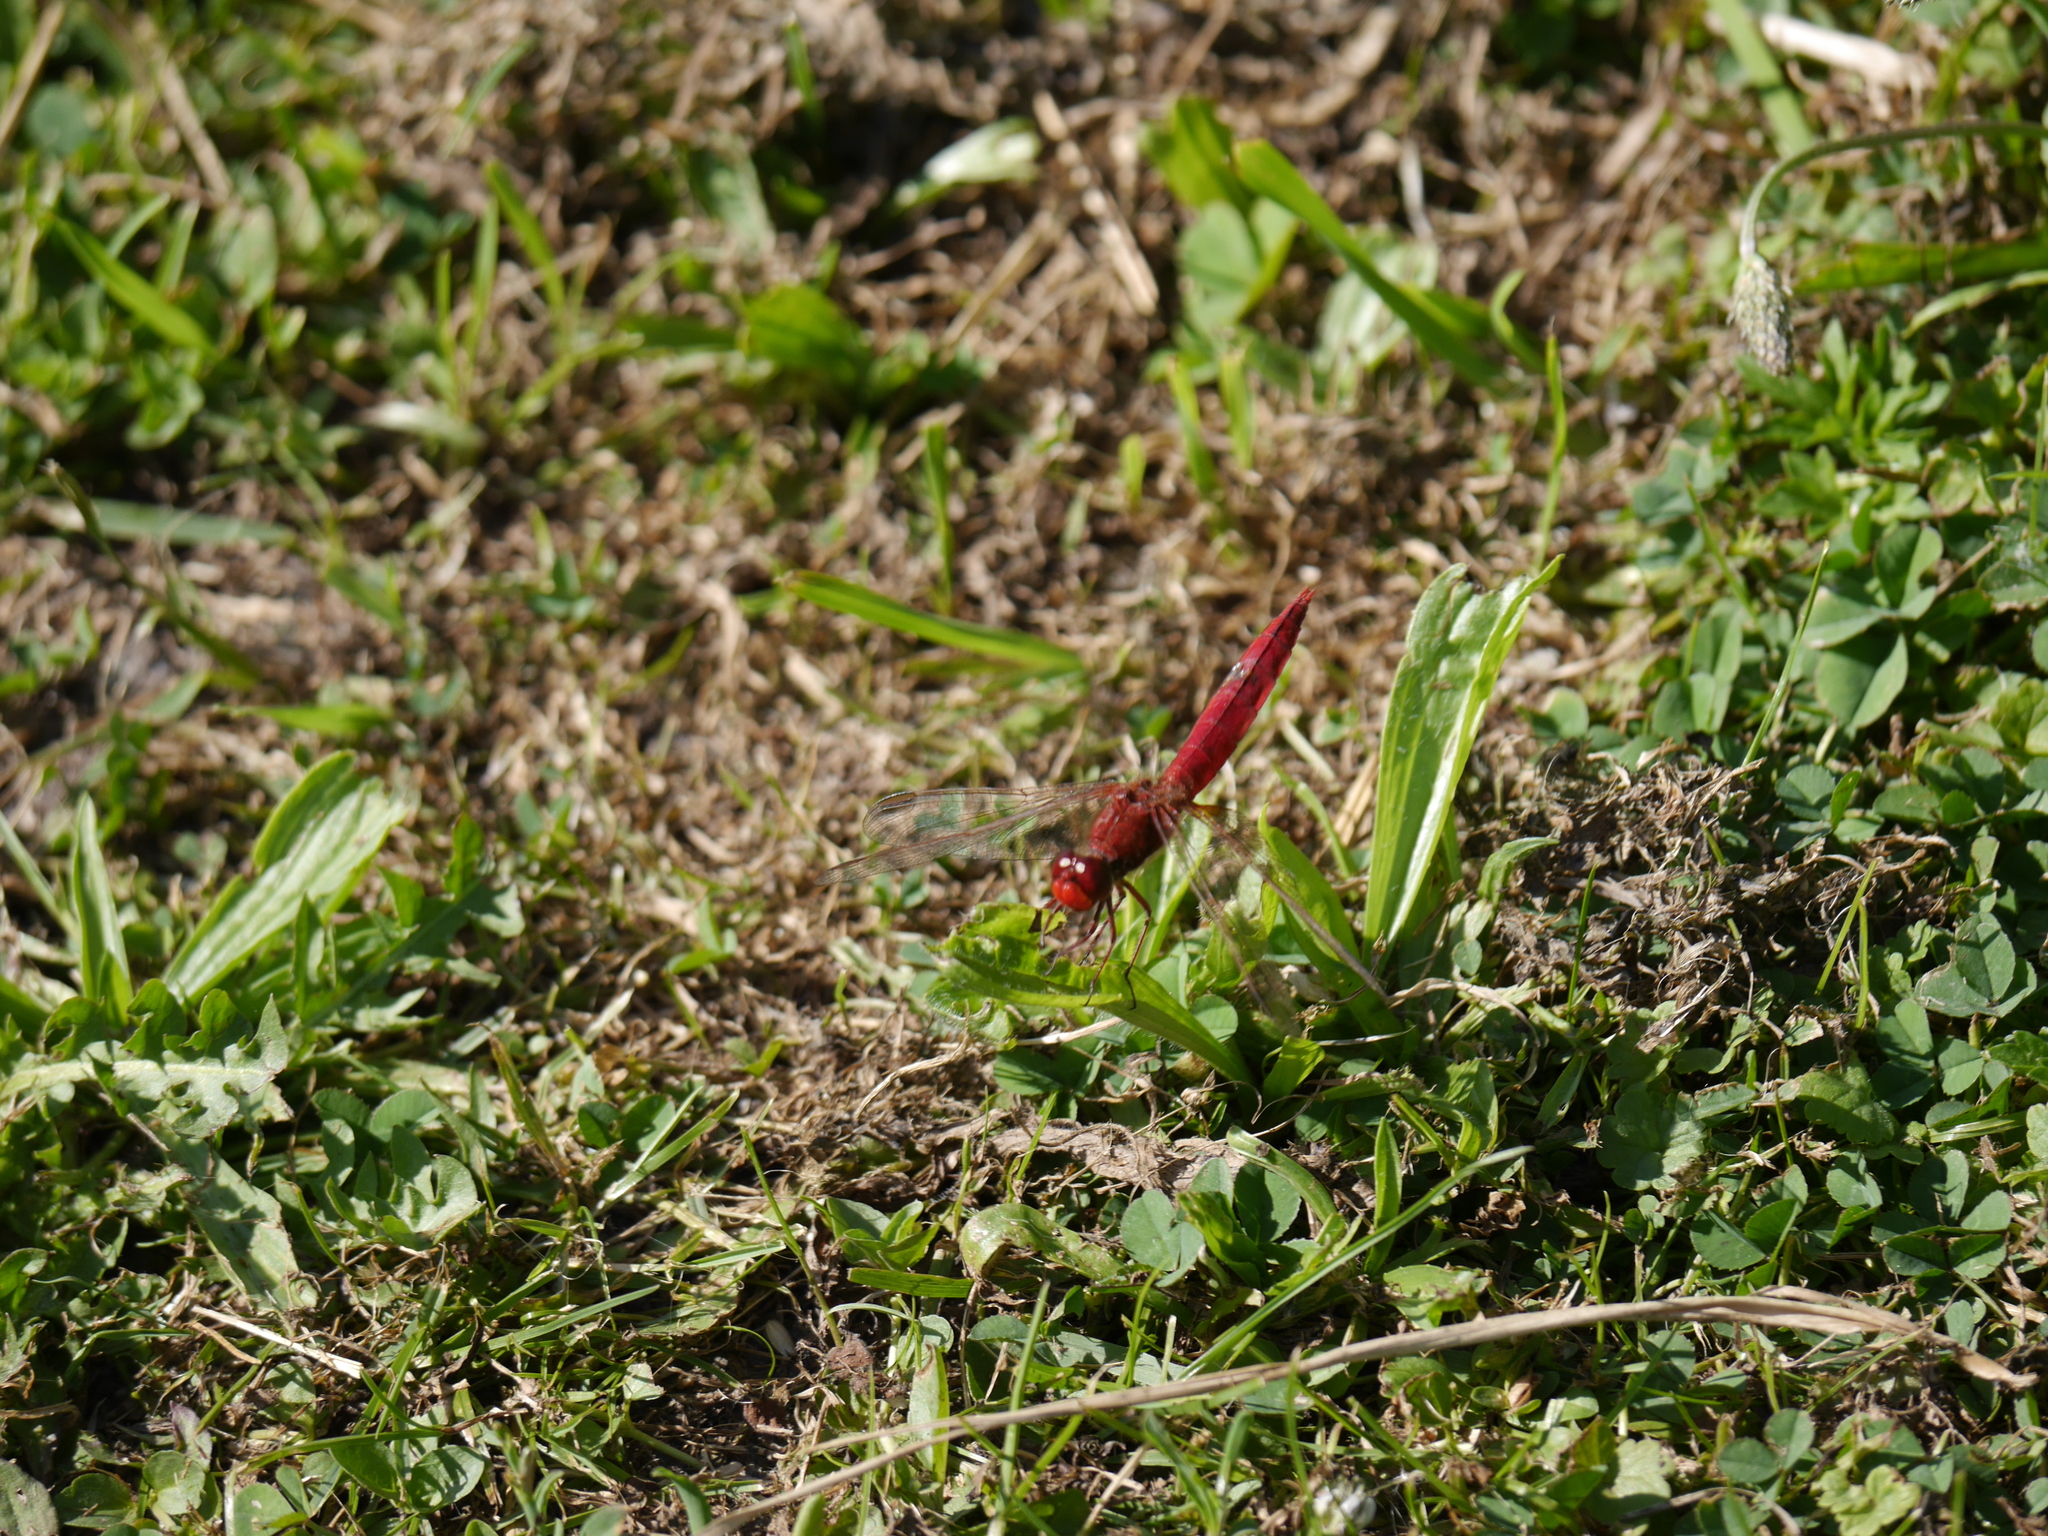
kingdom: Animalia
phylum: Arthropoda
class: Insecta
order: Odonata
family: Libellulidae
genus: Crocothemis
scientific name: Crocothemis erythraea
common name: Scarlet dragonfly
